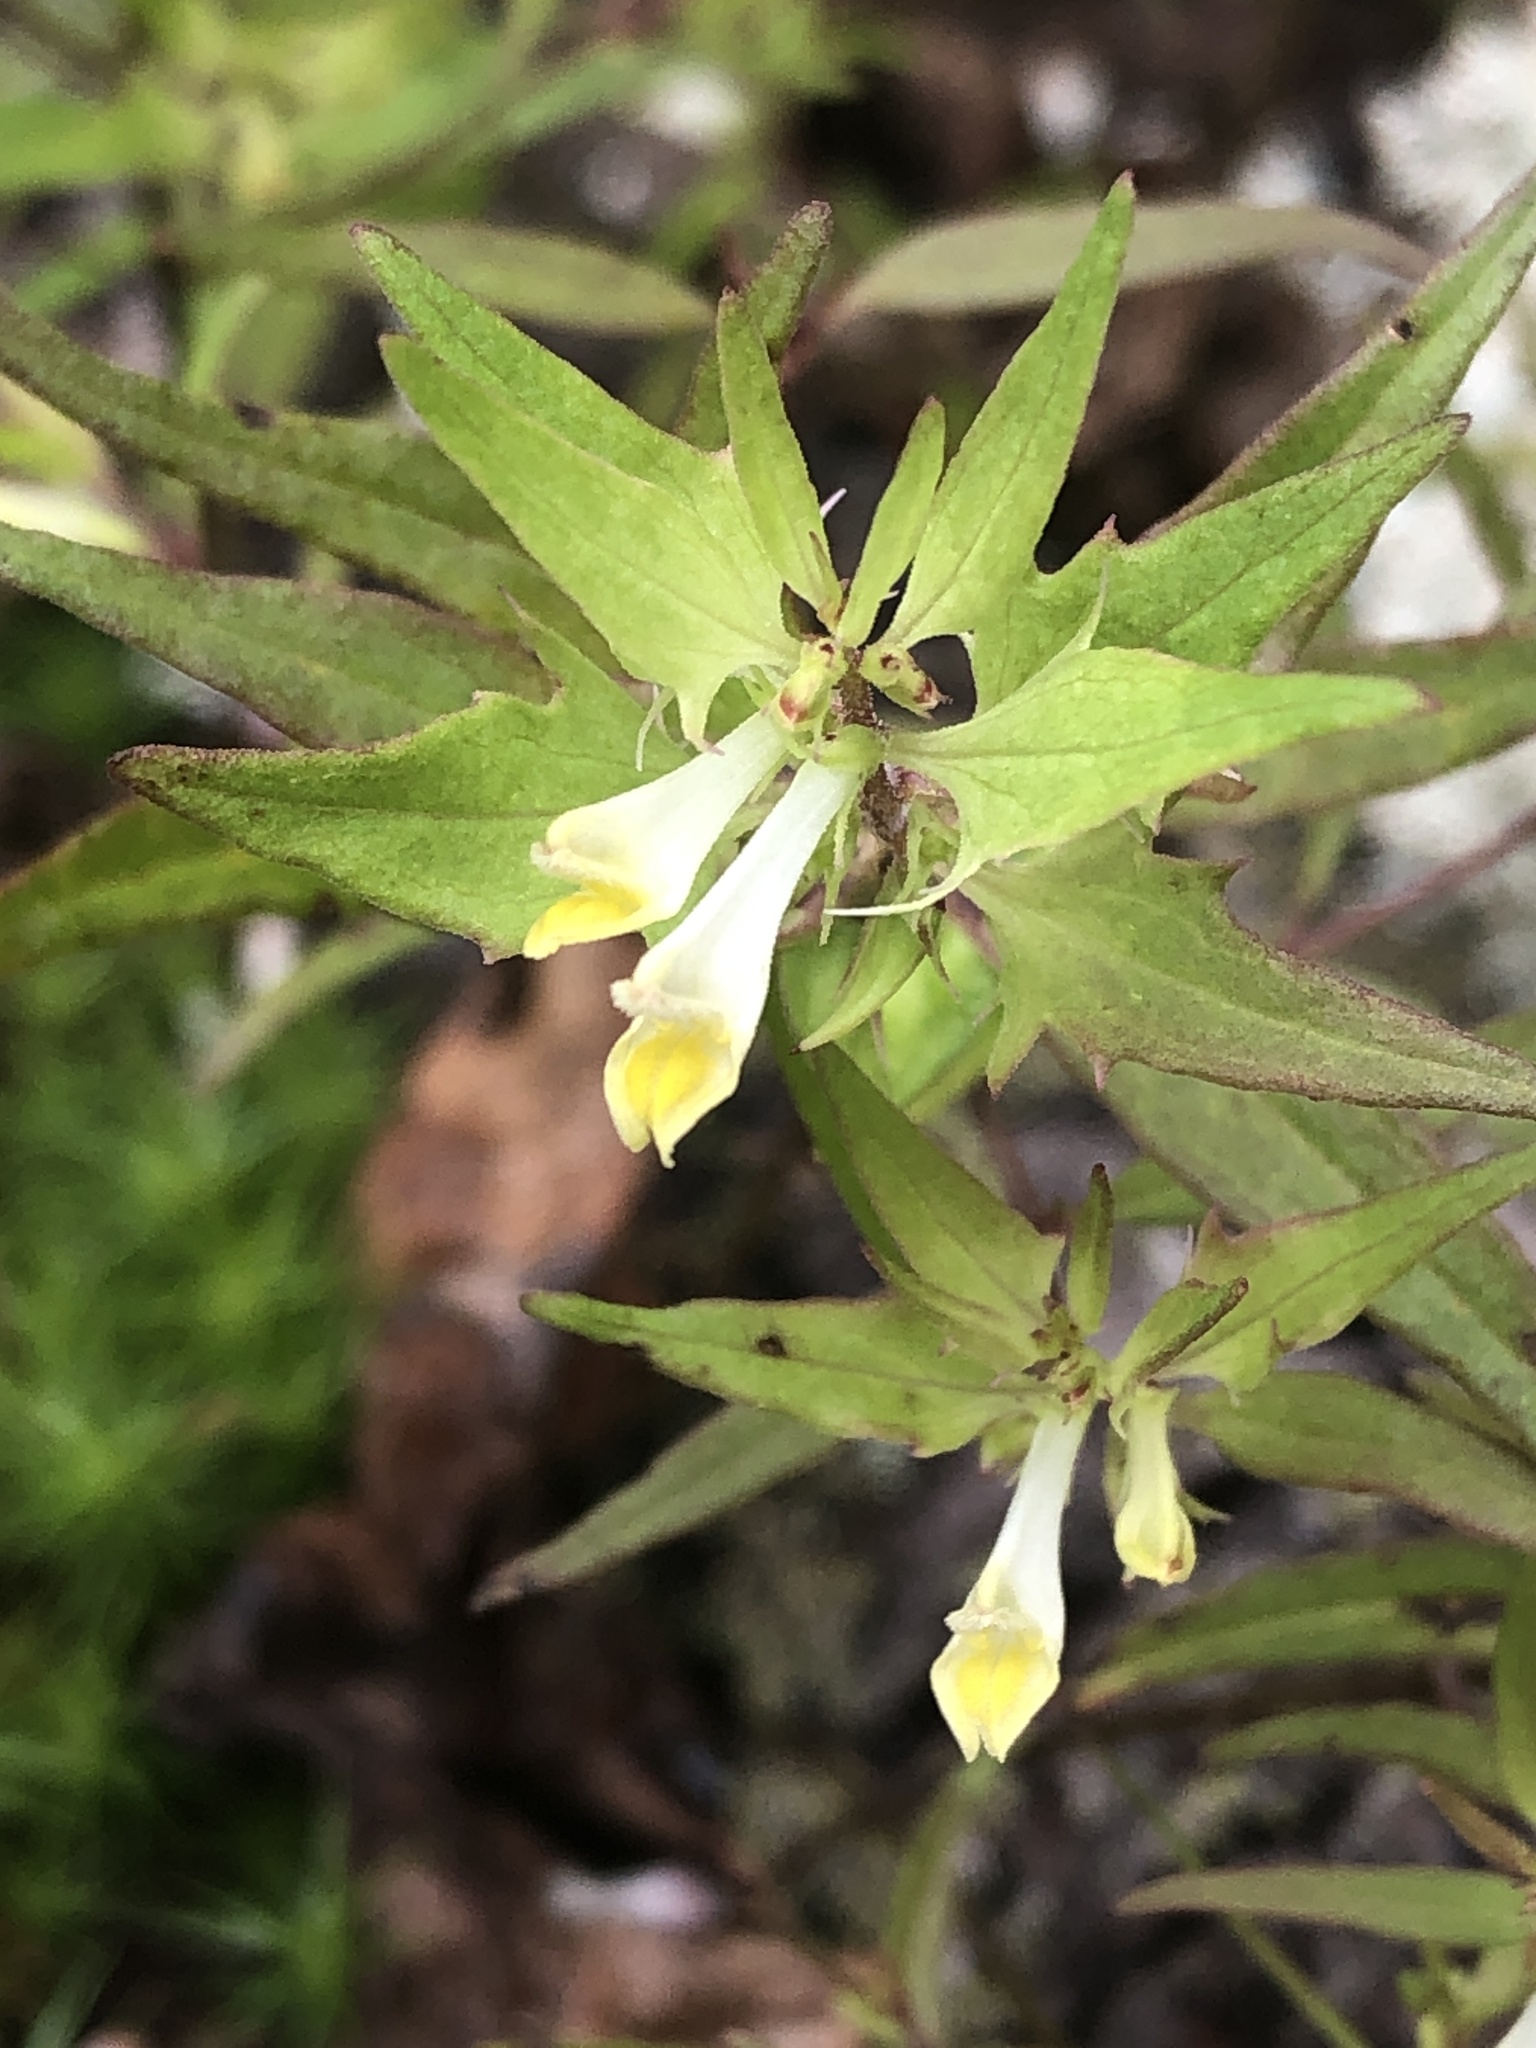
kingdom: Plantae
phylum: Tracheophyta
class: Magnoliopsida
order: Lamiales
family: Orobanchaceae
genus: Melampyrum
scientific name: Melampyrum lineare
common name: American cow-wheat
